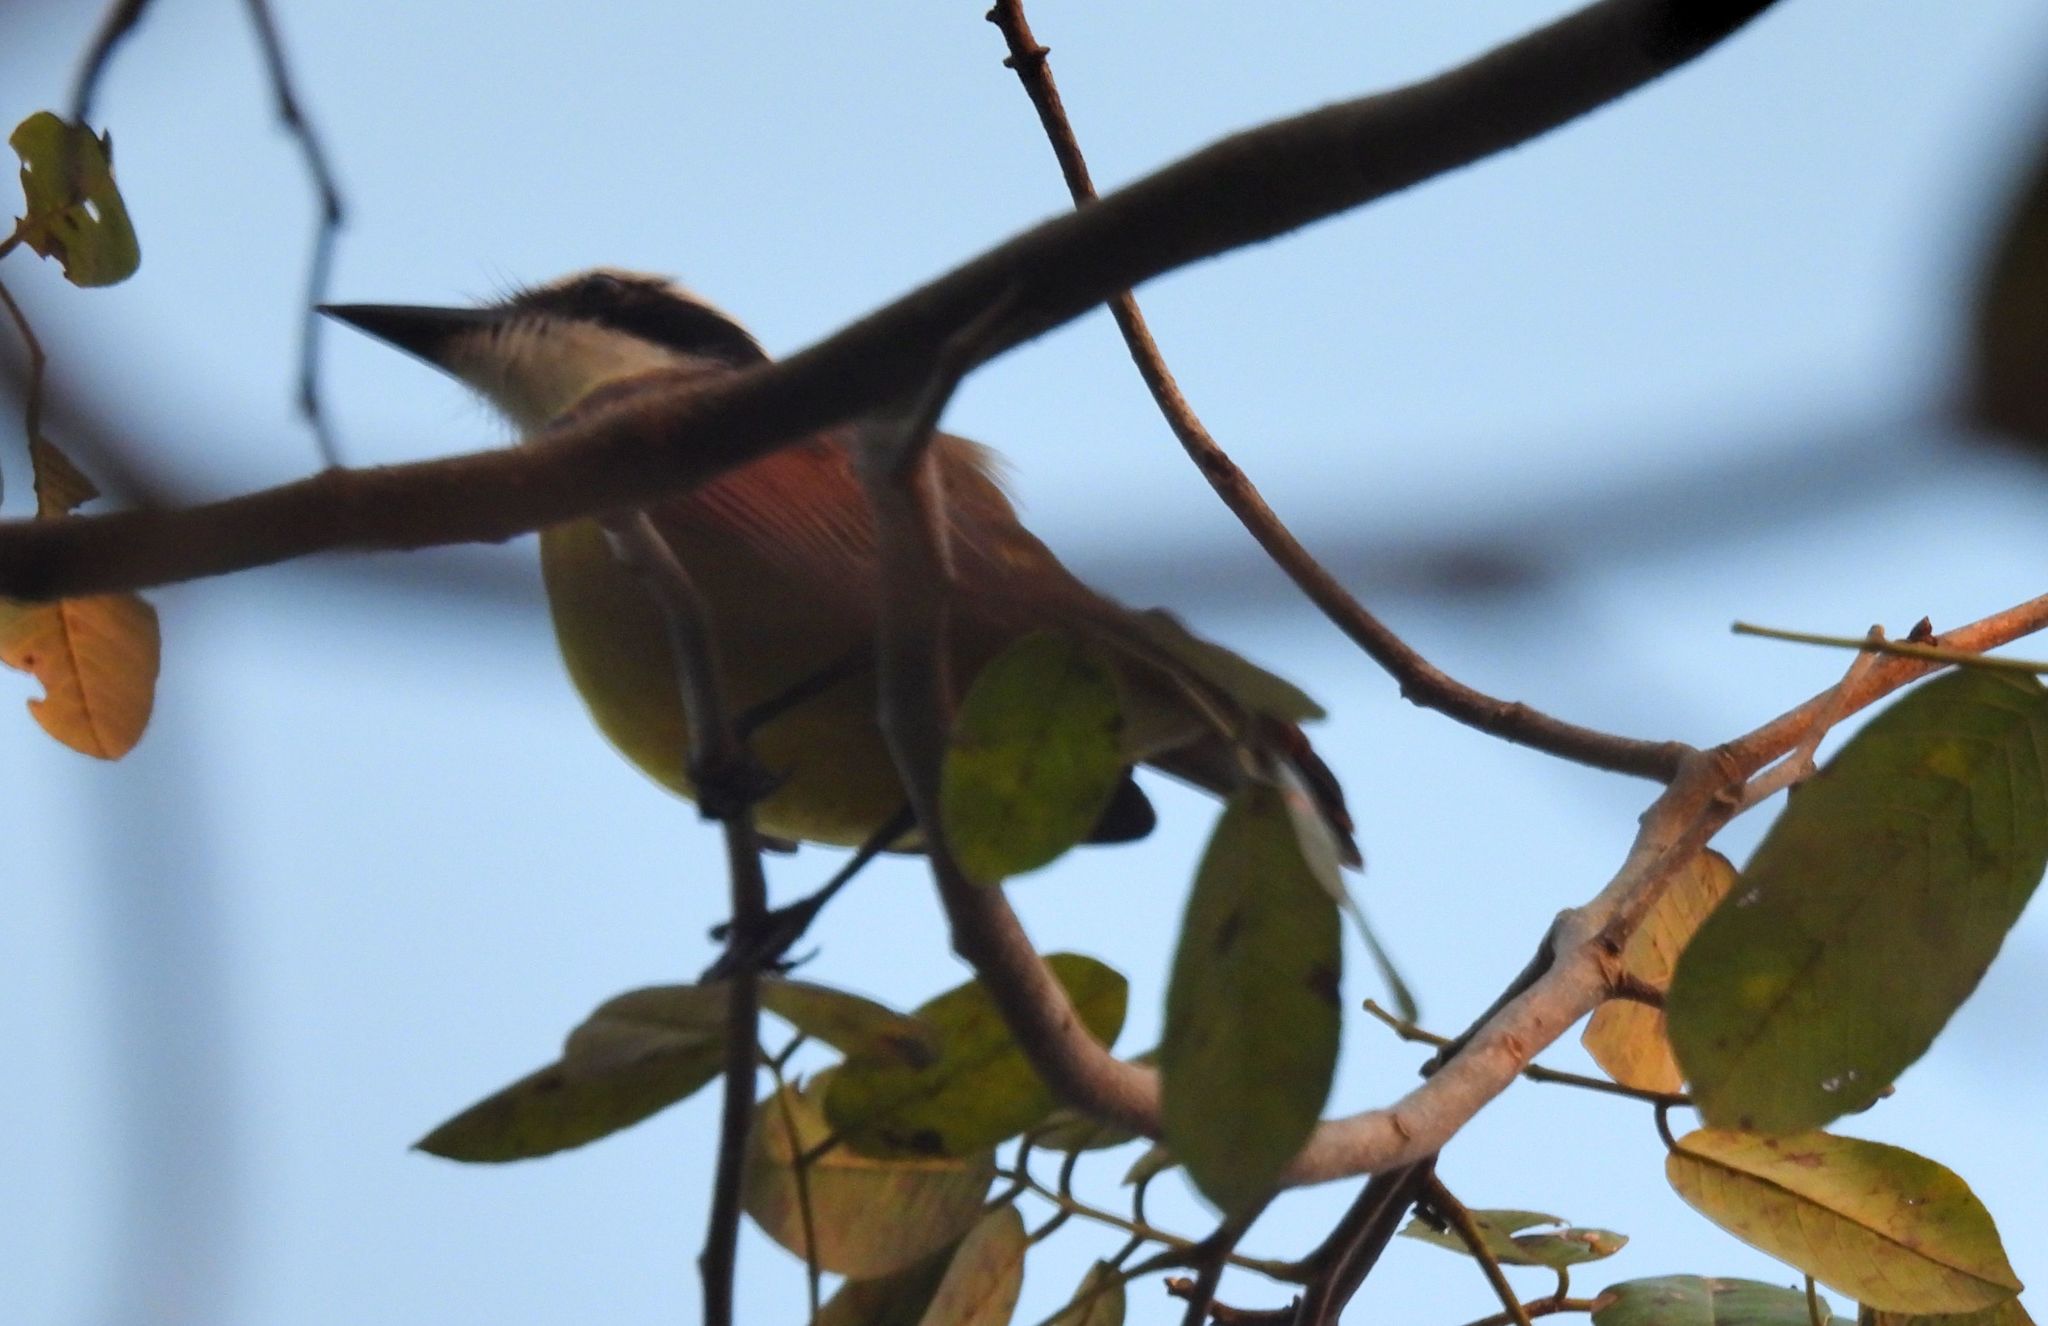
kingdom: Animalia
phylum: Chordata
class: Aves
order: Passeriformes
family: Tyrannidae
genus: Pitangus
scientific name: Pitangus sulphuratus
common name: Great kiskadee
